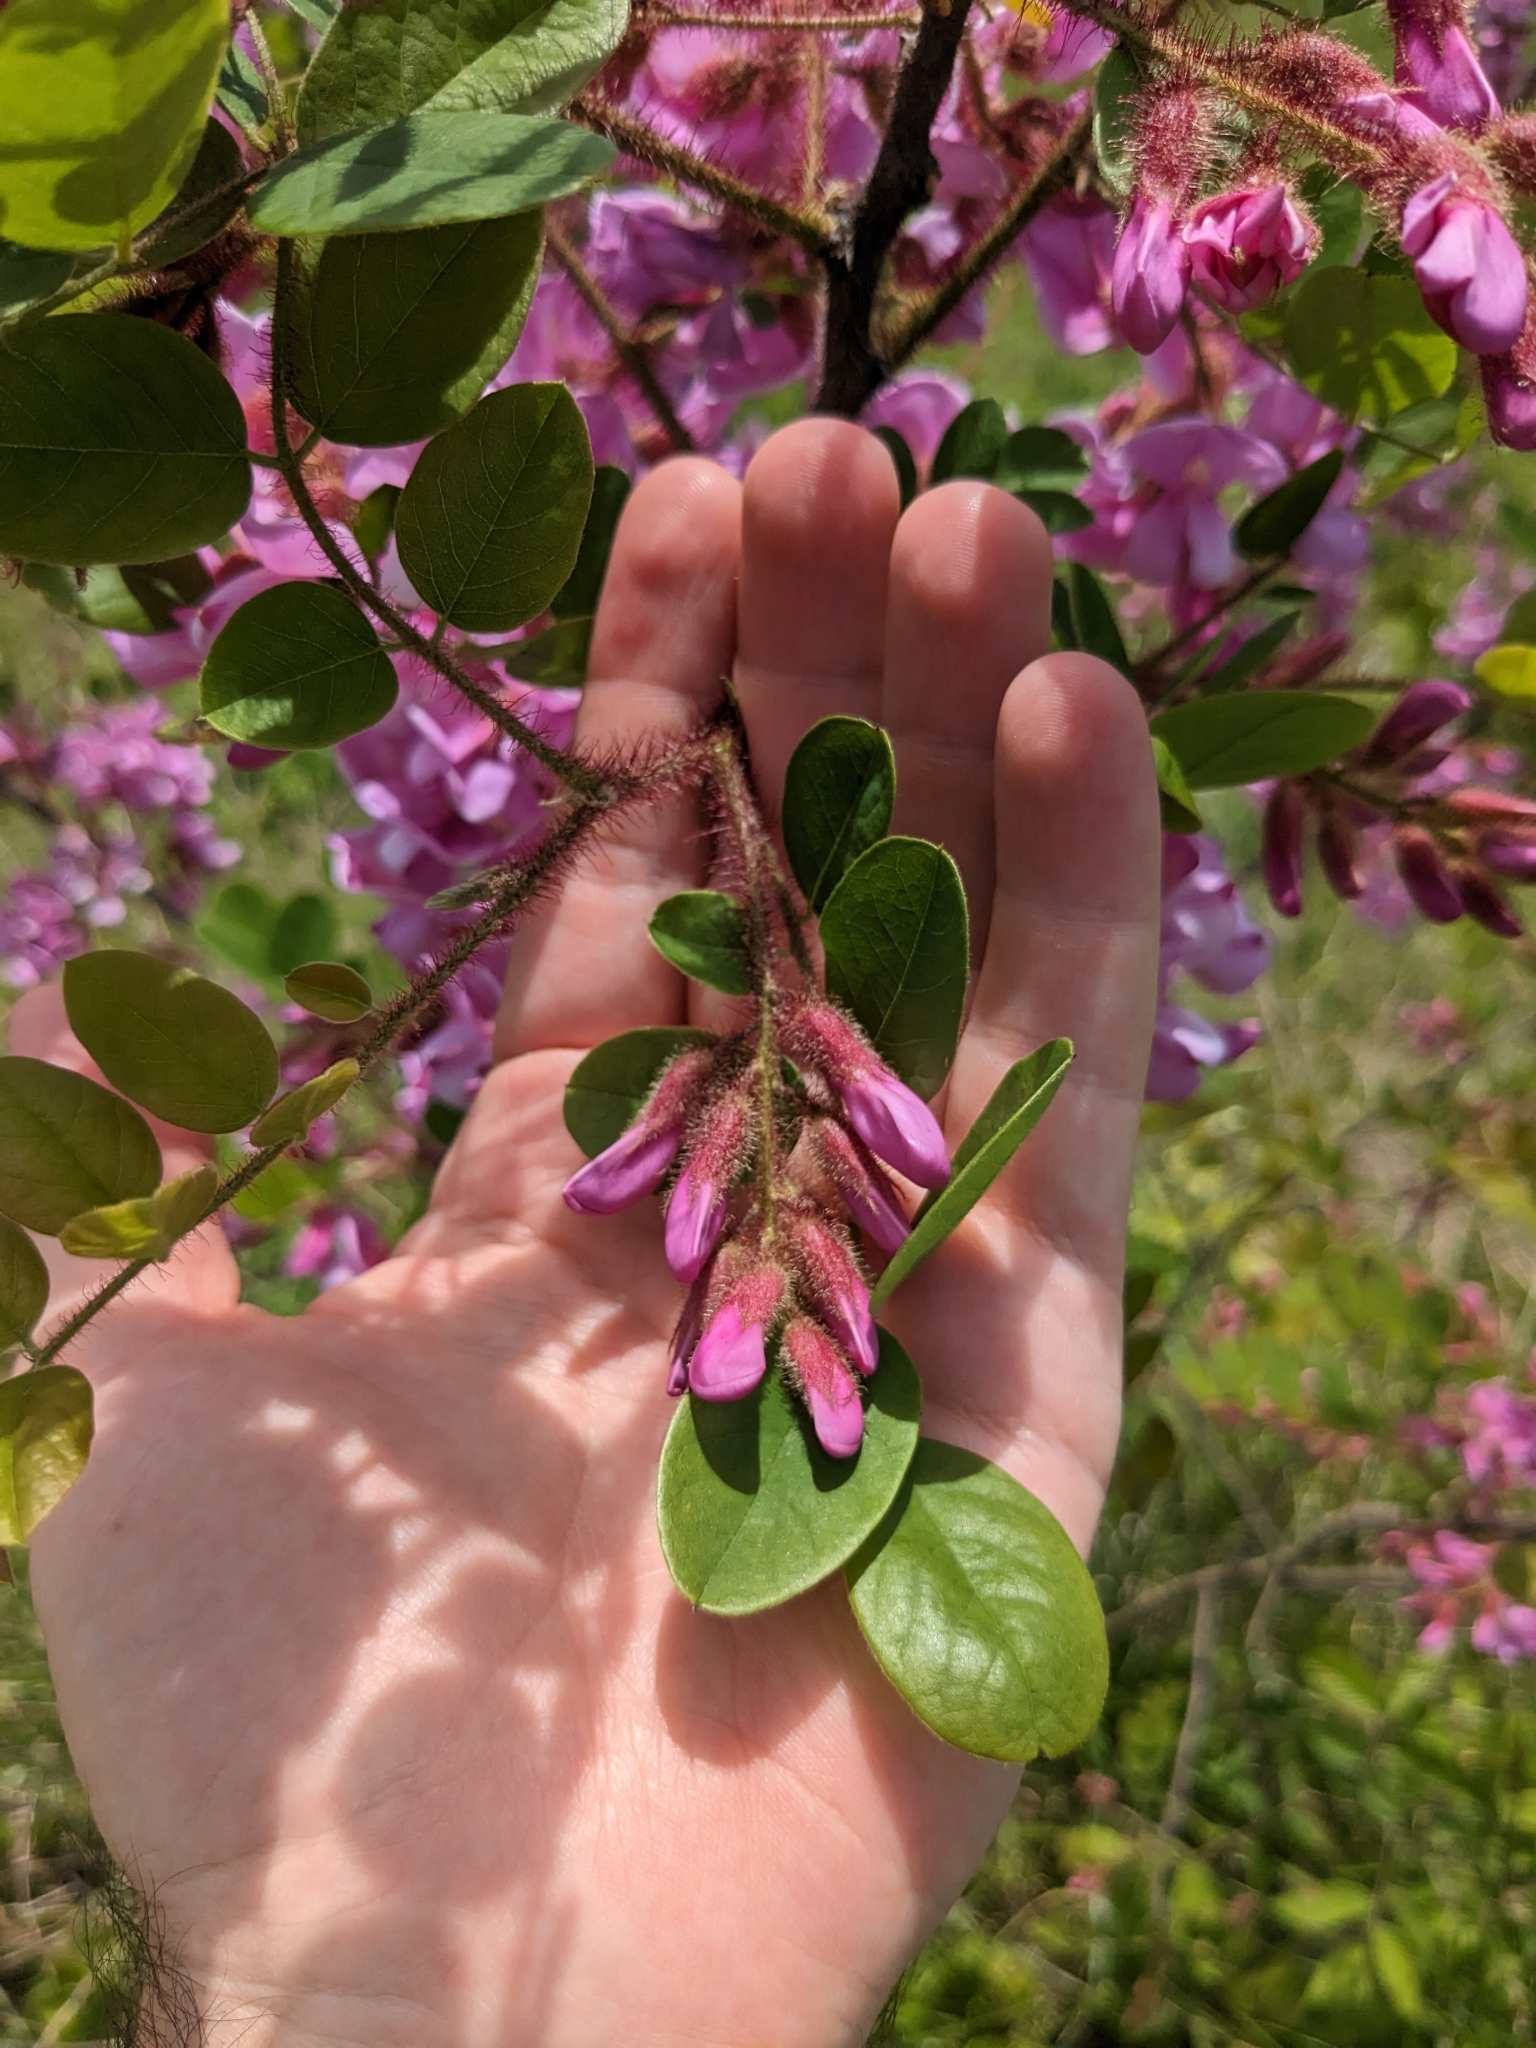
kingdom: Plantae
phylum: Tracheophyta
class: Magnoliopsida
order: Fabales
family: Fabaceae
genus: Robinia
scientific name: Robinia hispida
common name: Bristly locust
